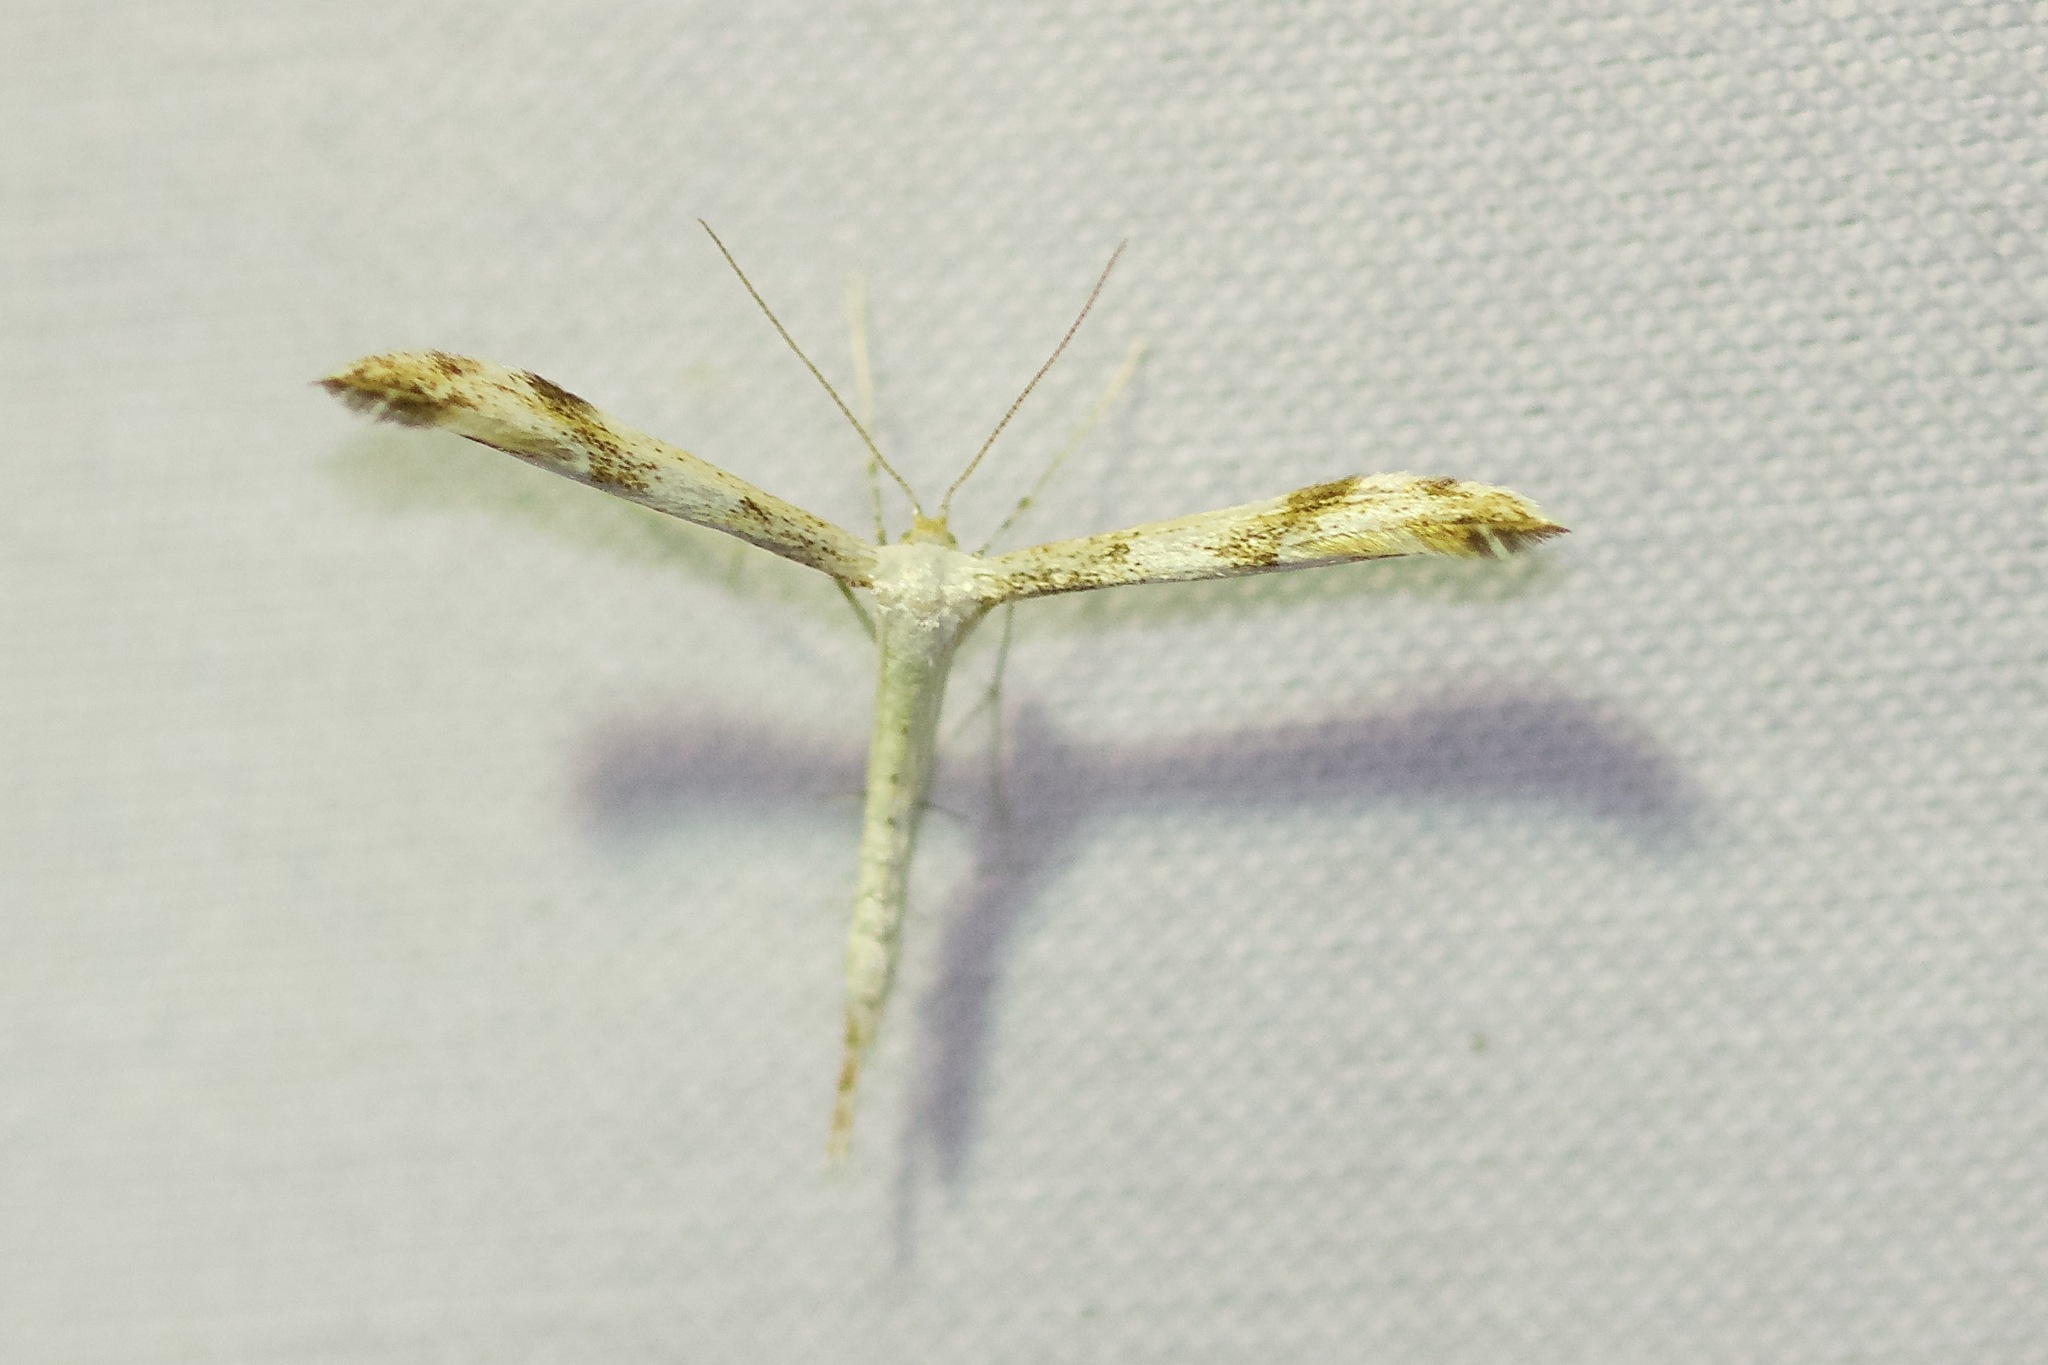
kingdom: Animalia
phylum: Arthropoda
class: Insecta
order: Lepidoptera
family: Pterophoridae
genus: Adaina
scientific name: Adaina montanus
